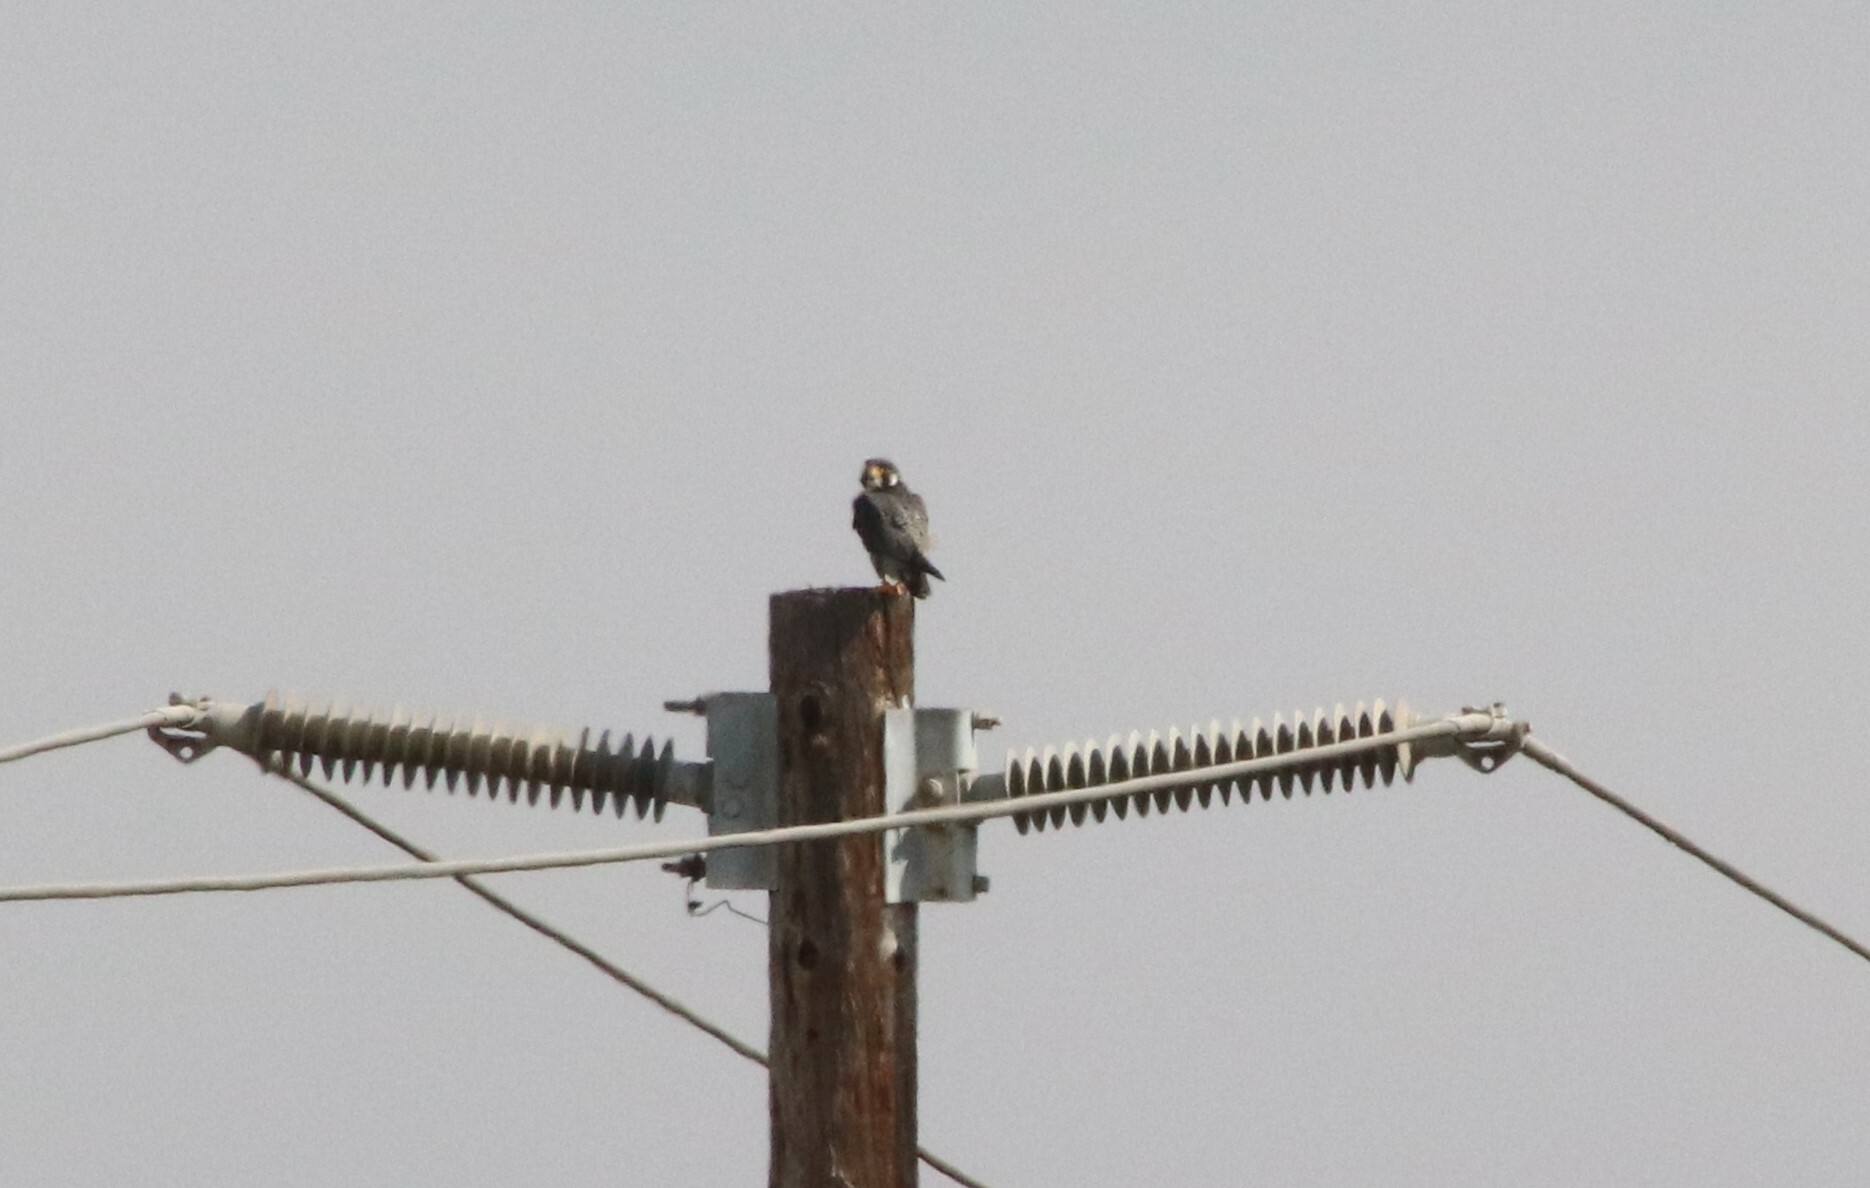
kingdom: Animalia
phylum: Chordata
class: Aves
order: Falconiformes
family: Falconidae
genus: Falco
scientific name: Falco peregrinus
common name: Peregrine falcon
